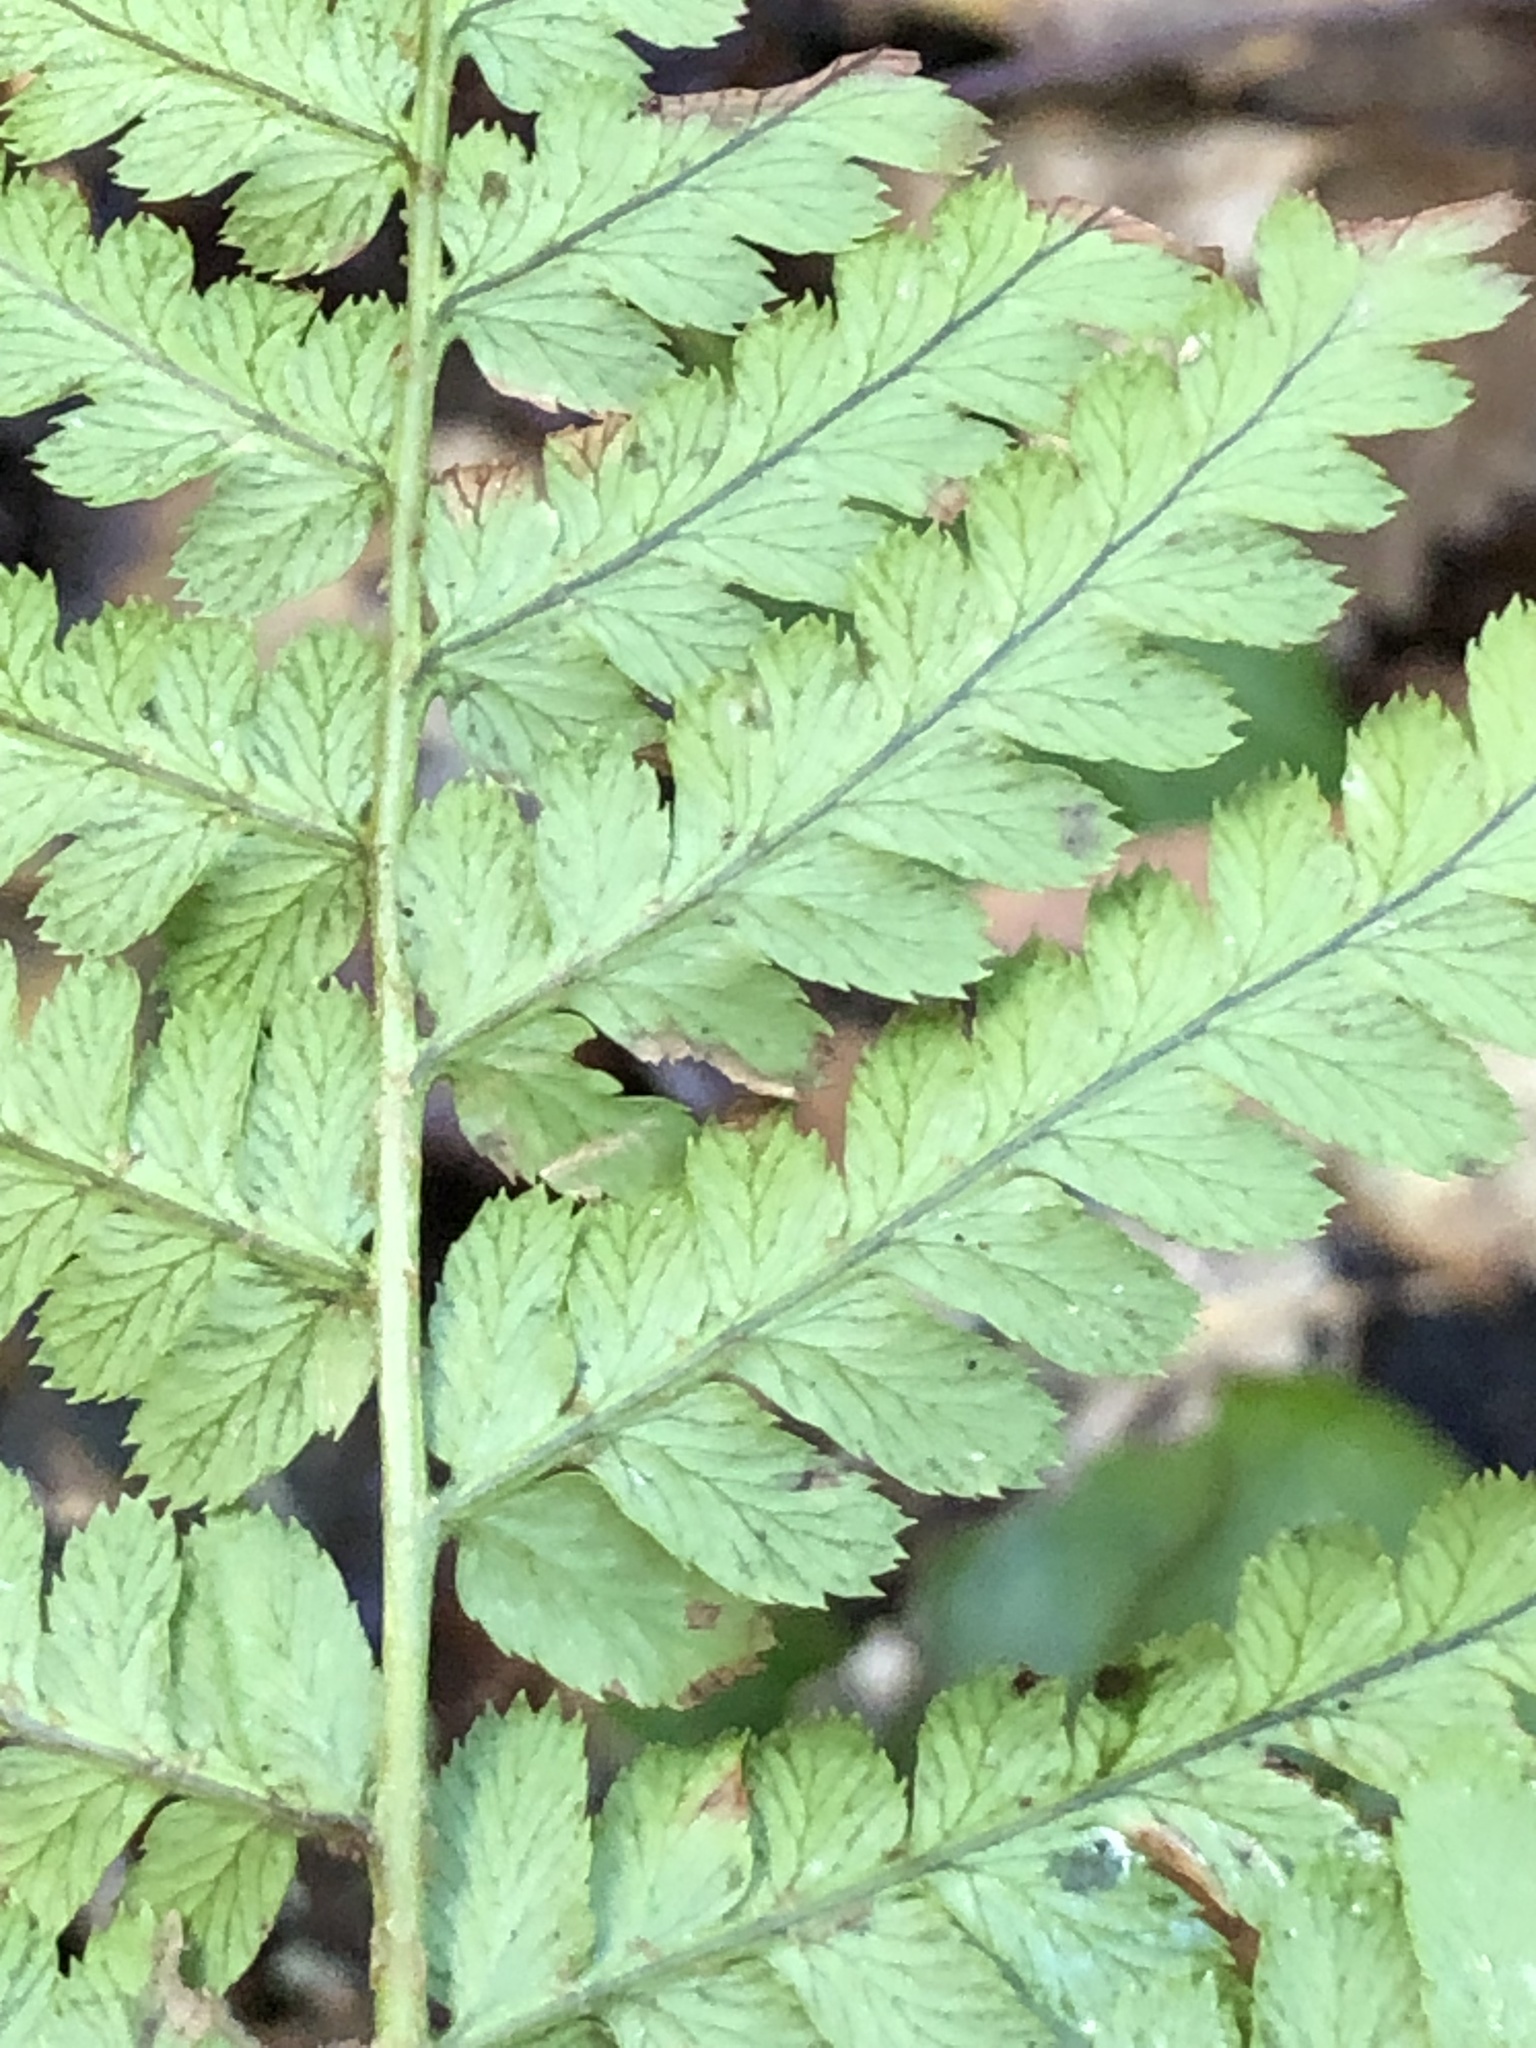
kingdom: Plantae
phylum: Tracheophyta
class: Polypodiopsida
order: Polypodiales
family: Dryopteridaceae
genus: Dryopteris
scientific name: Dryopteris arguta
